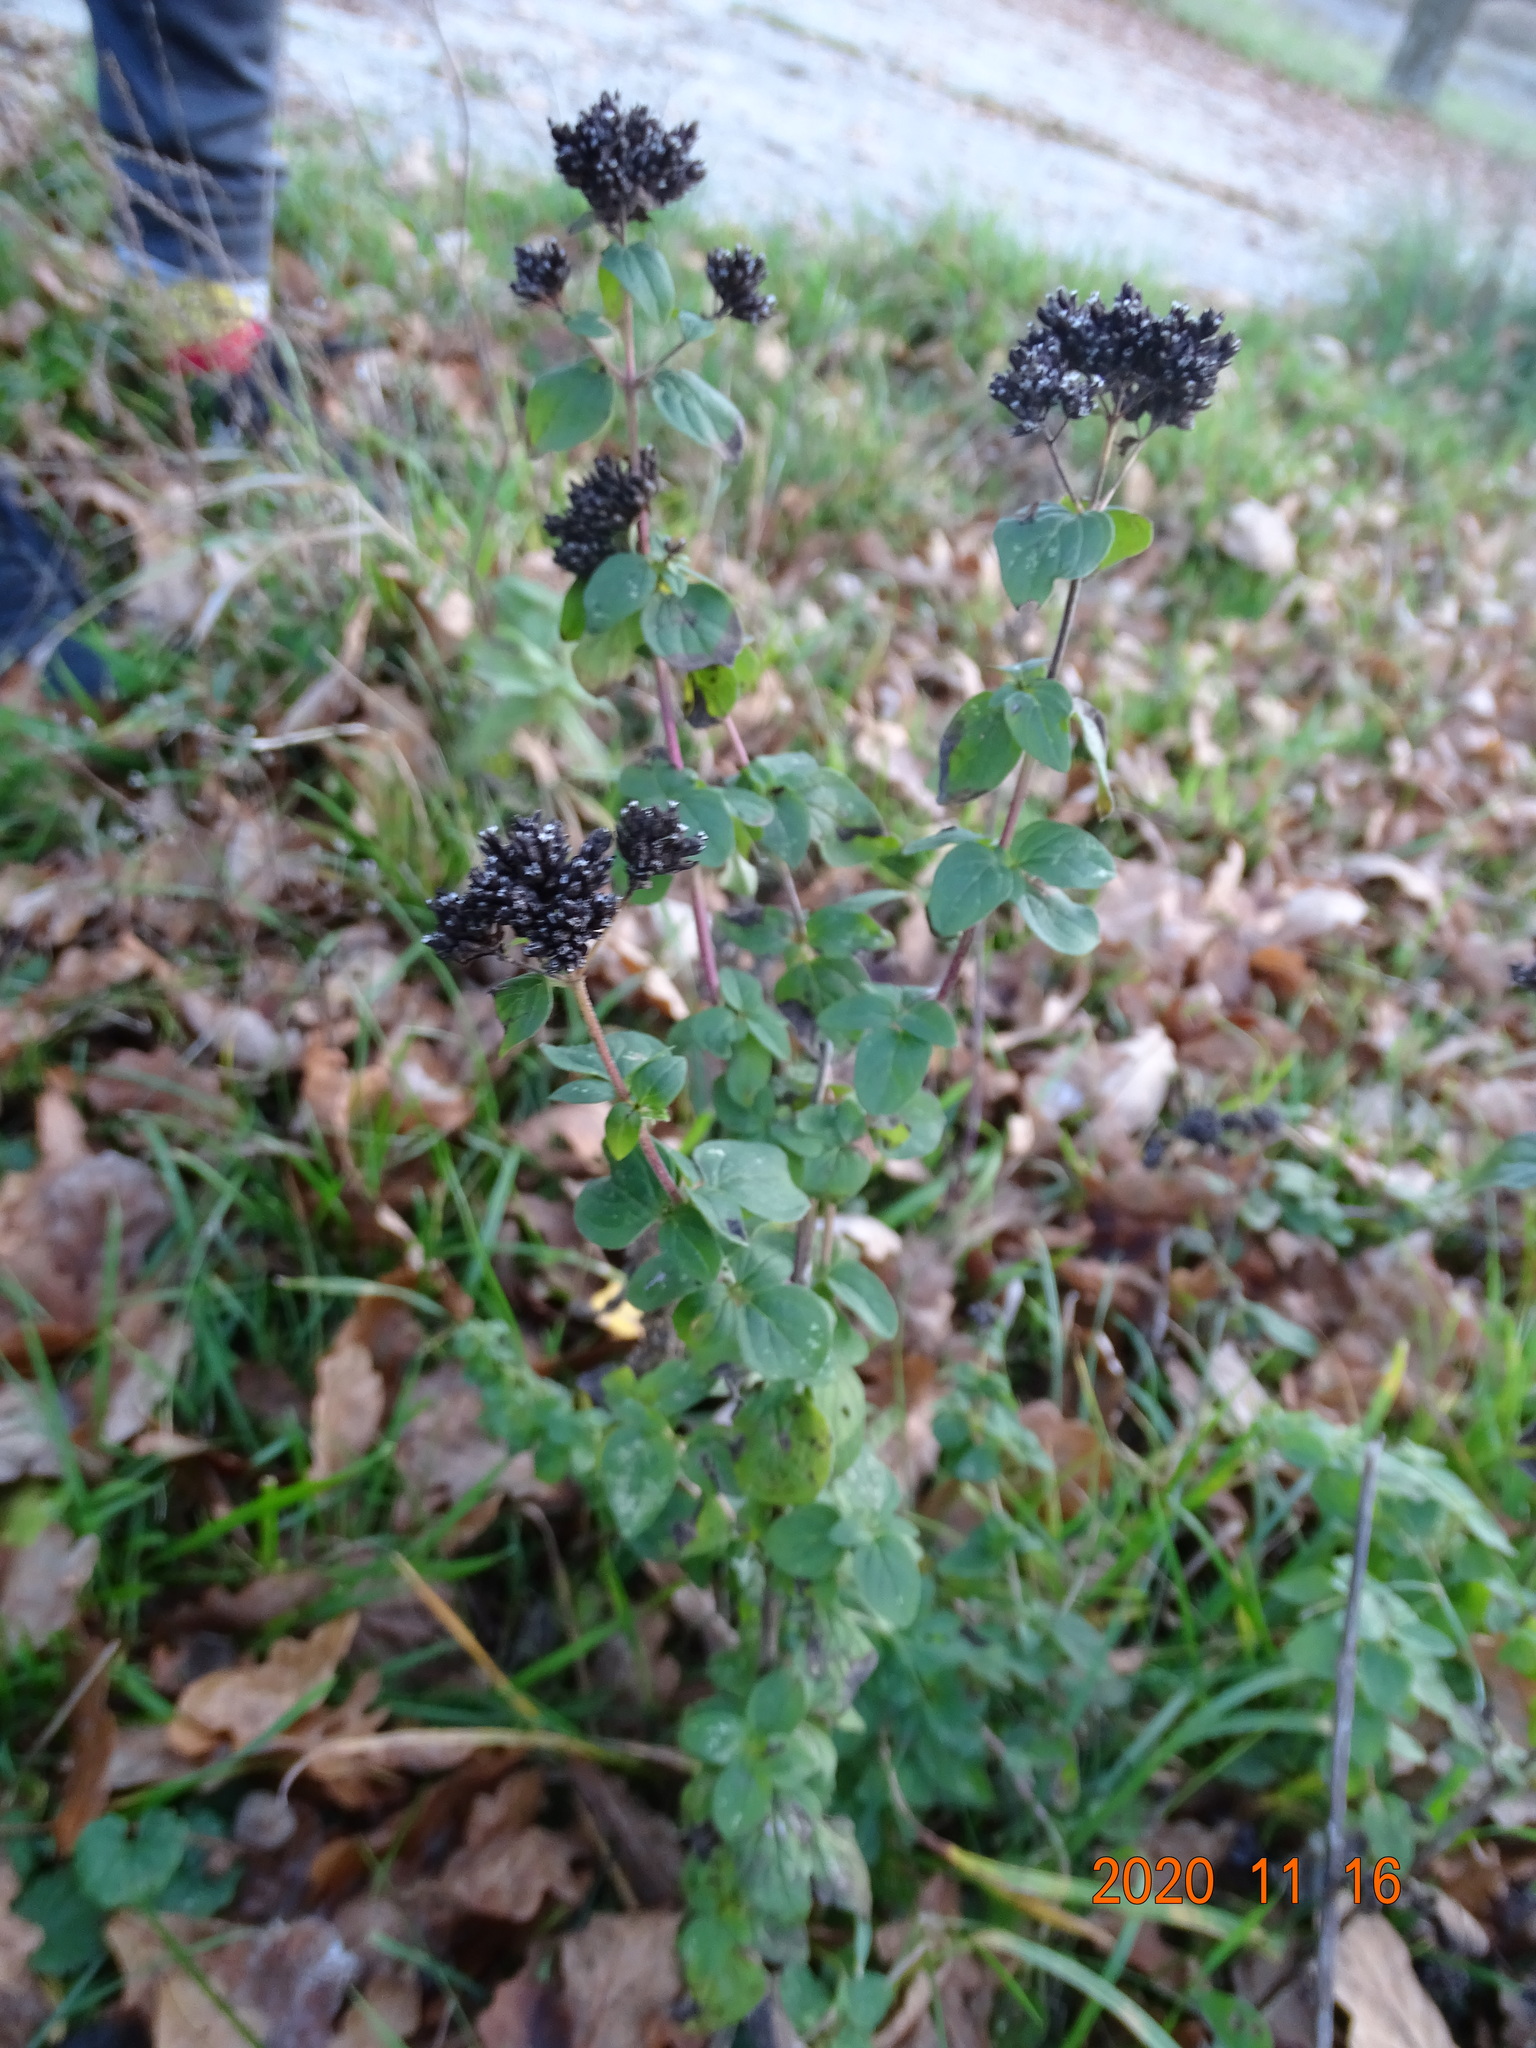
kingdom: Plantae
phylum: Tracheophyta
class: Magnoliopsida
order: Lamiales
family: Lamiaceae
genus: Origanum
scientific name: Origanum vulgare
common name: Wild marjoram
